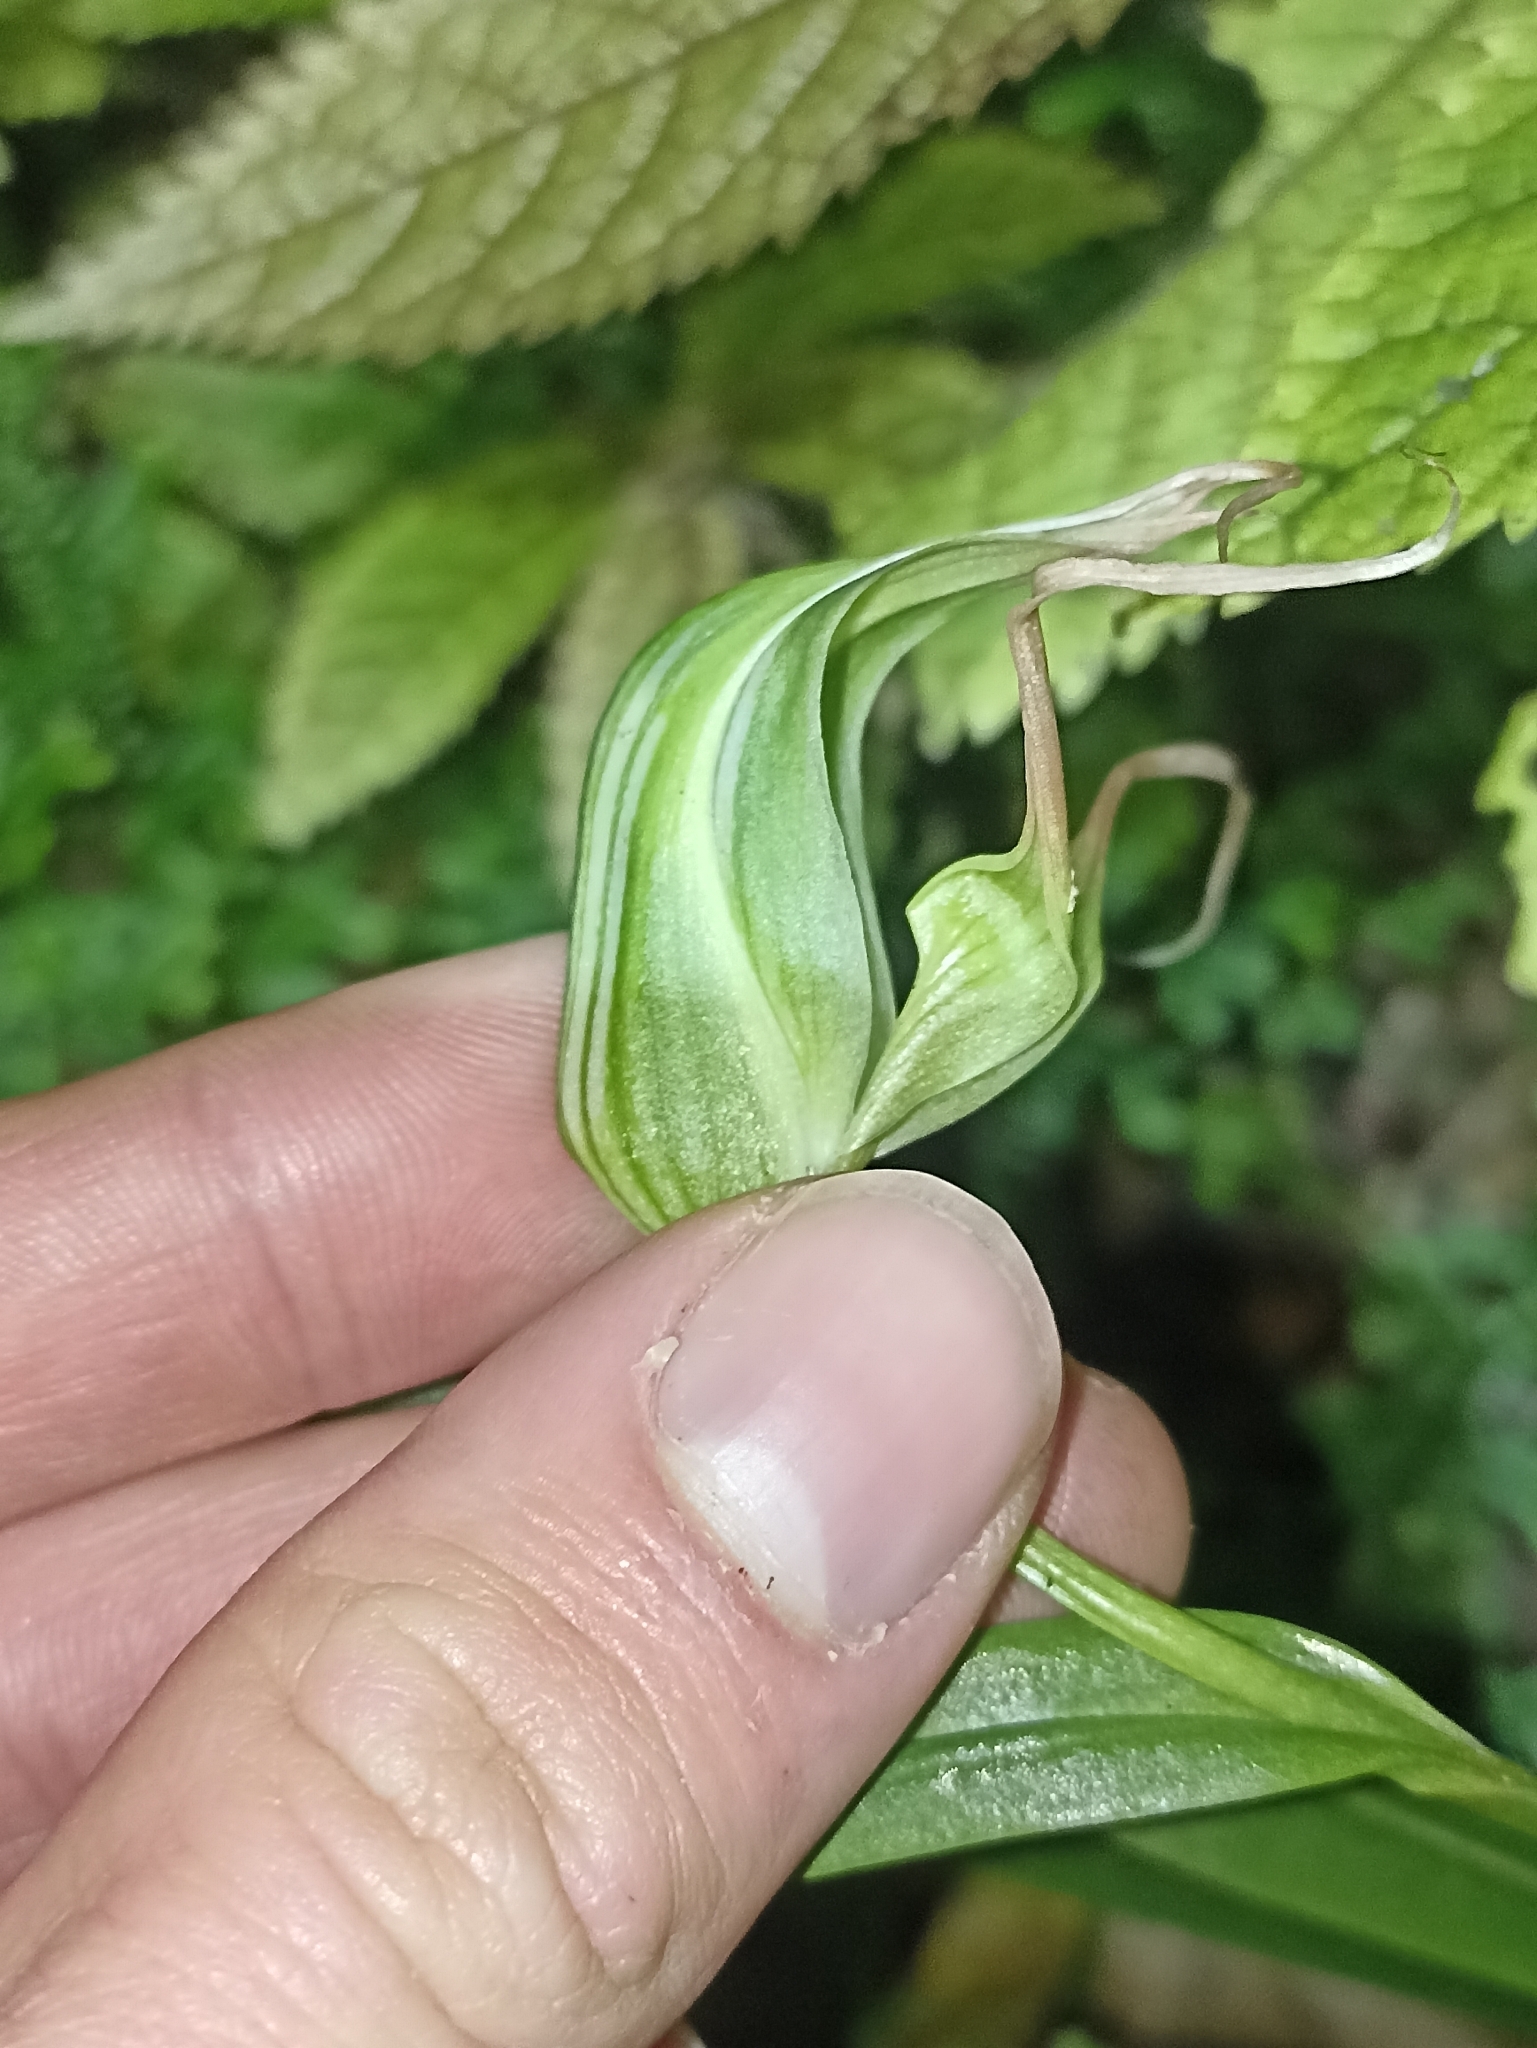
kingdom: Plantae
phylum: Tracheophyta
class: Liliopsida
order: Asparagales
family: Orchidaceae
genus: Pterostylis
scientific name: Pterostylis banksii
